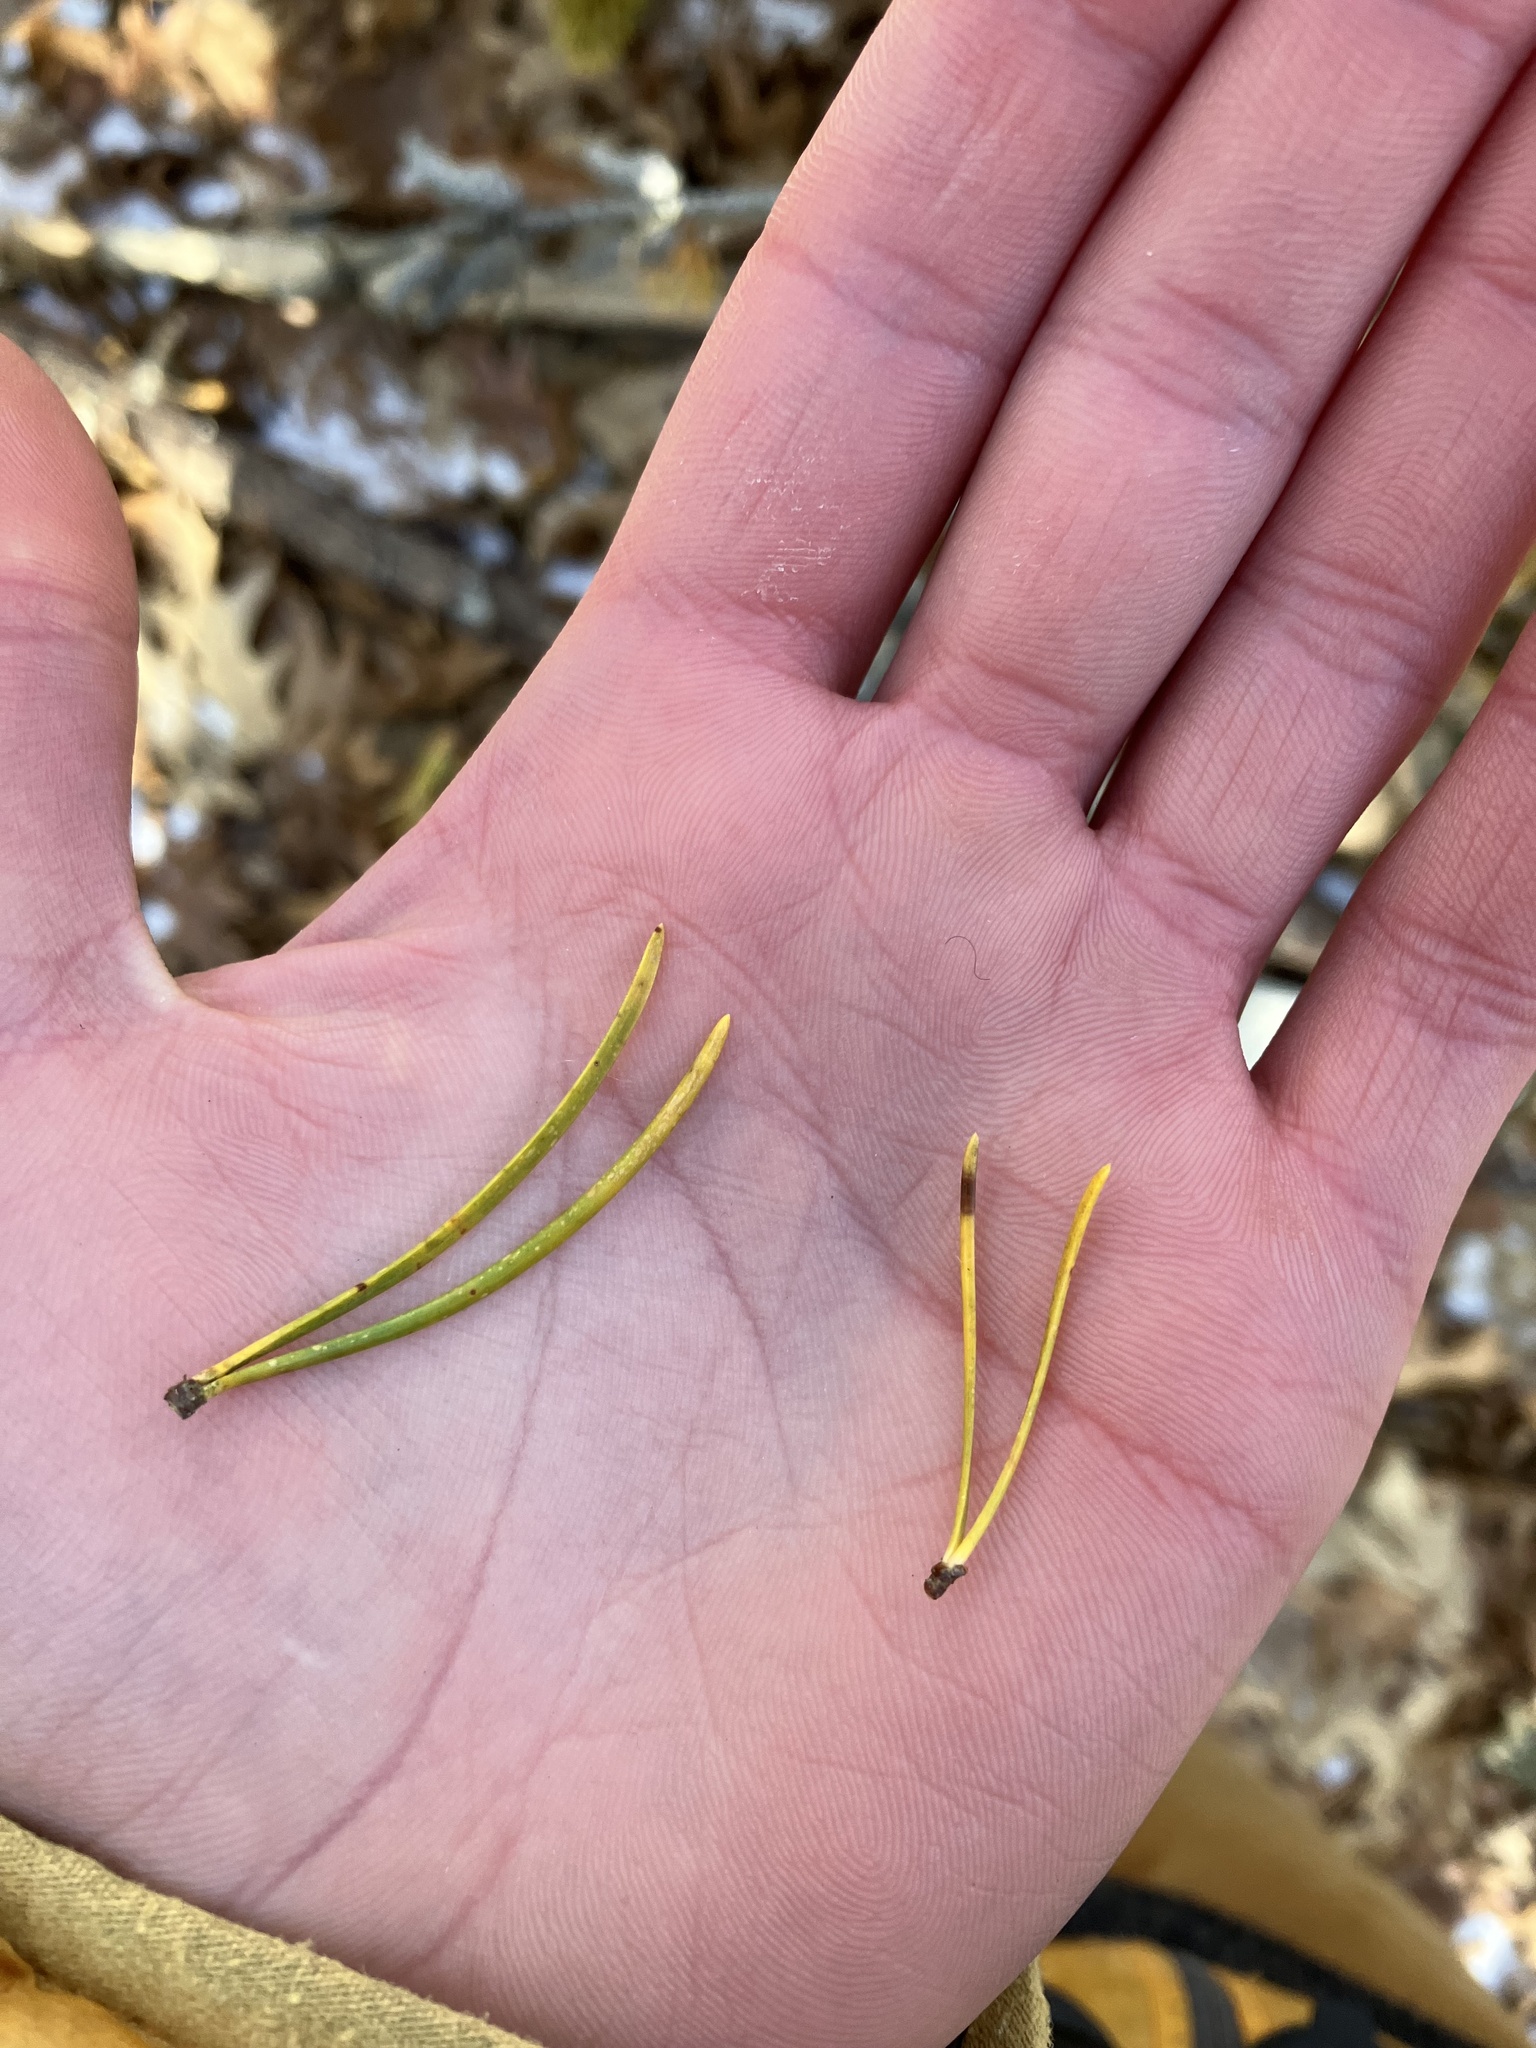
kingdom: Plantae
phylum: Tracheophyta
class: Pinopsida
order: Pinales
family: Pinaceae
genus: Pinus
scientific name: Pinus banksiana
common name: Jack pine
